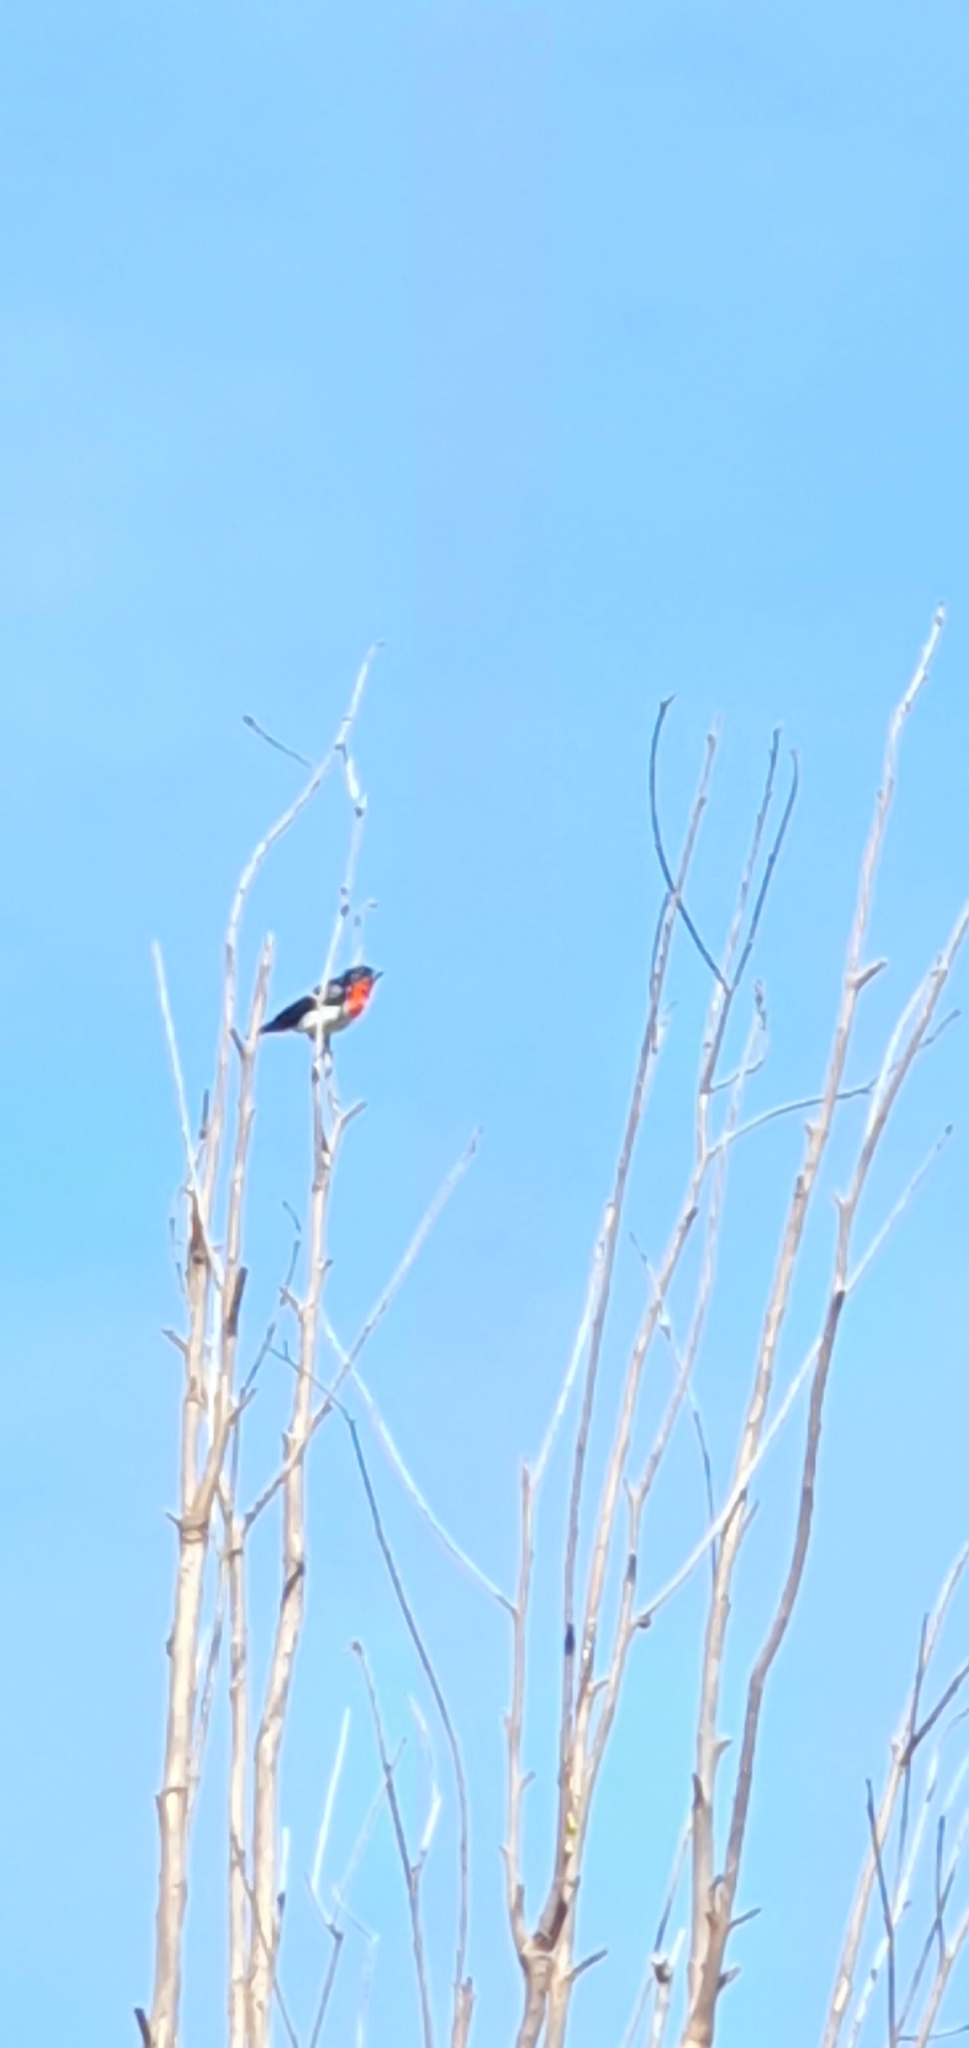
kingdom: Animalia
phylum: Chordata
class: Aves
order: Passeriformes
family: Dicaeidae
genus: Dicaeum
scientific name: Dicaeum hirundinaceum
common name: Mistletoebird
